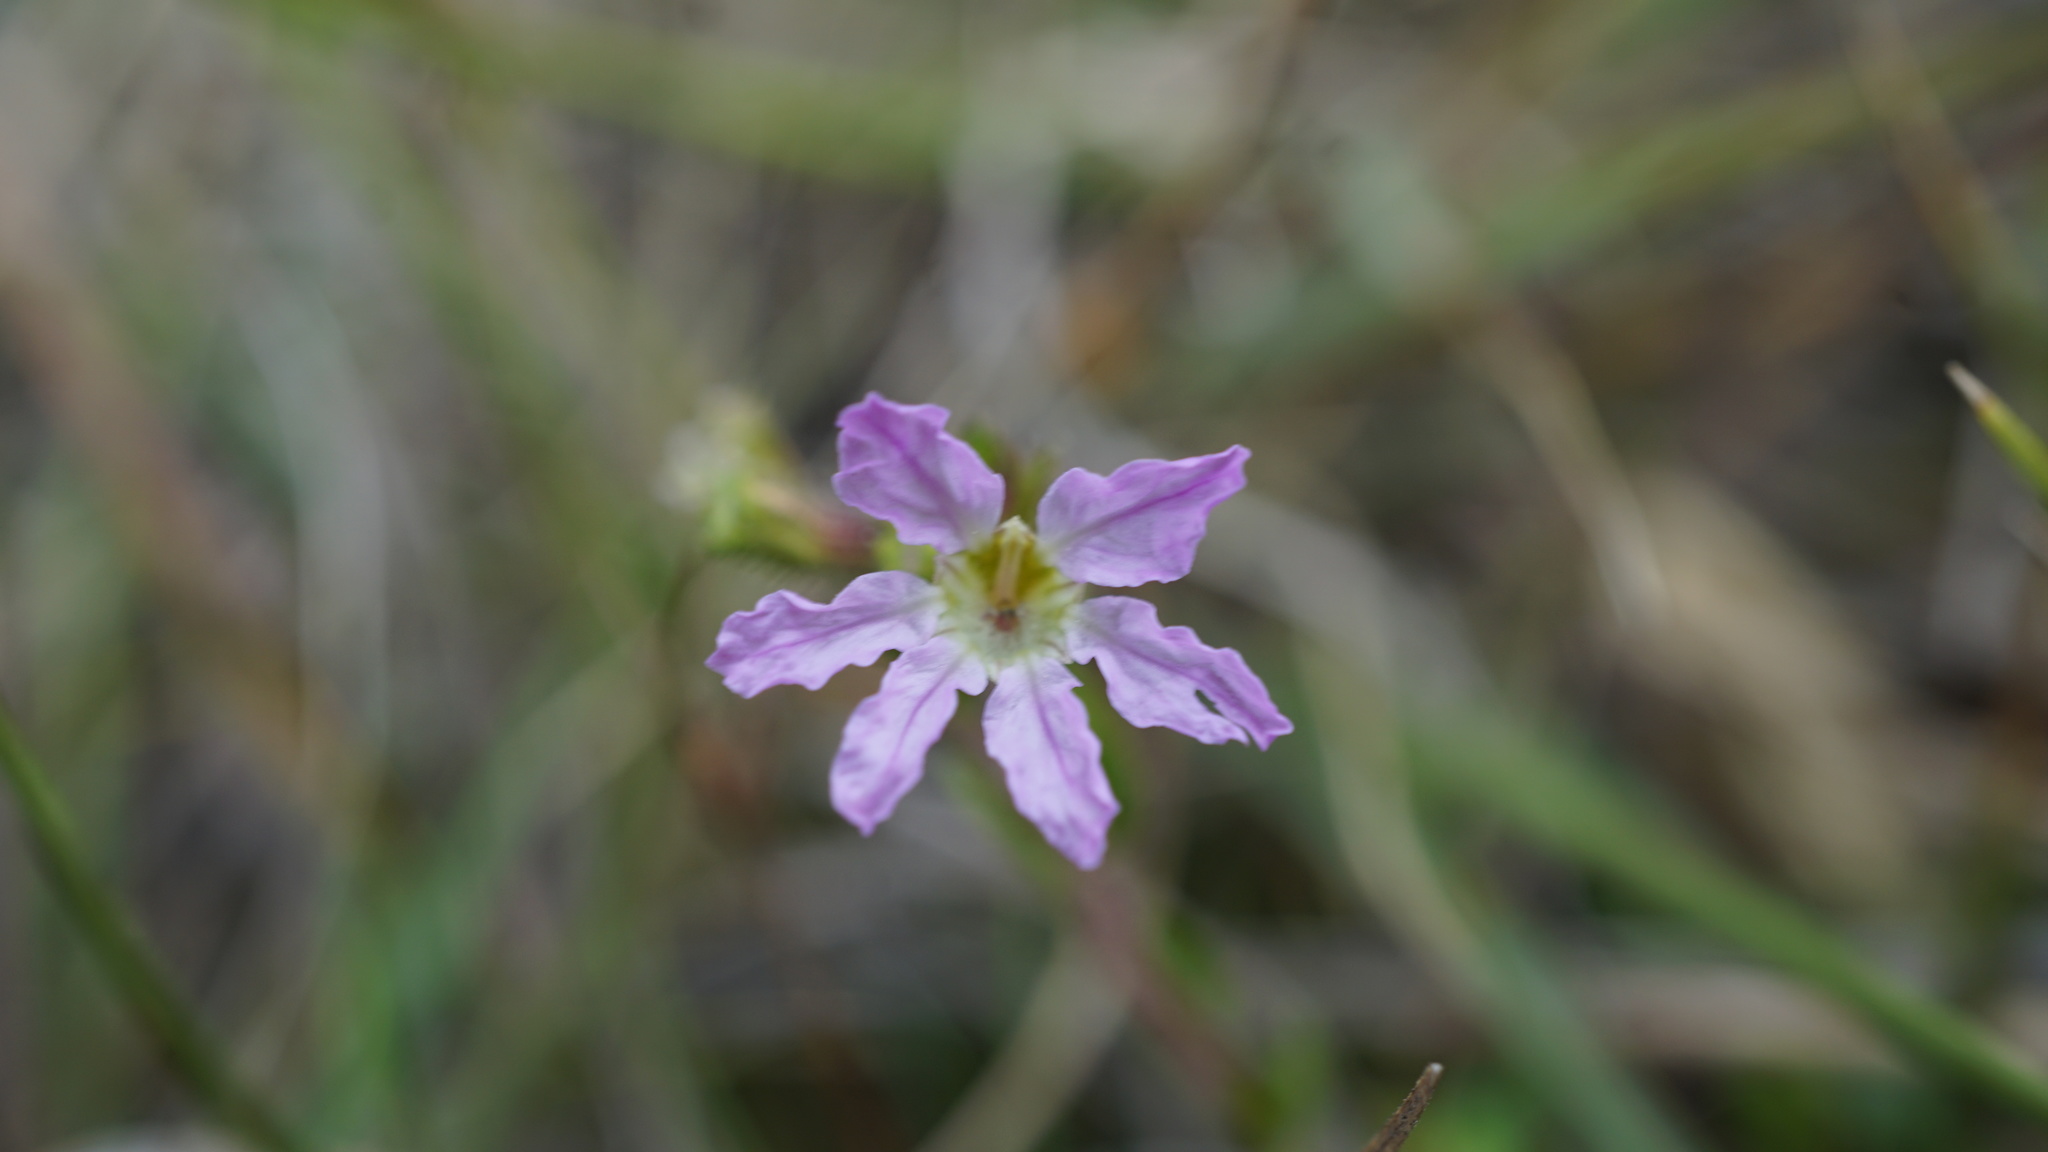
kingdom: Plantae
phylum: Tracheophyta
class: Magnoliopsida
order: Myrtales
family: Lythraceae
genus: Cuphea
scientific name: Cuphea ciliata
